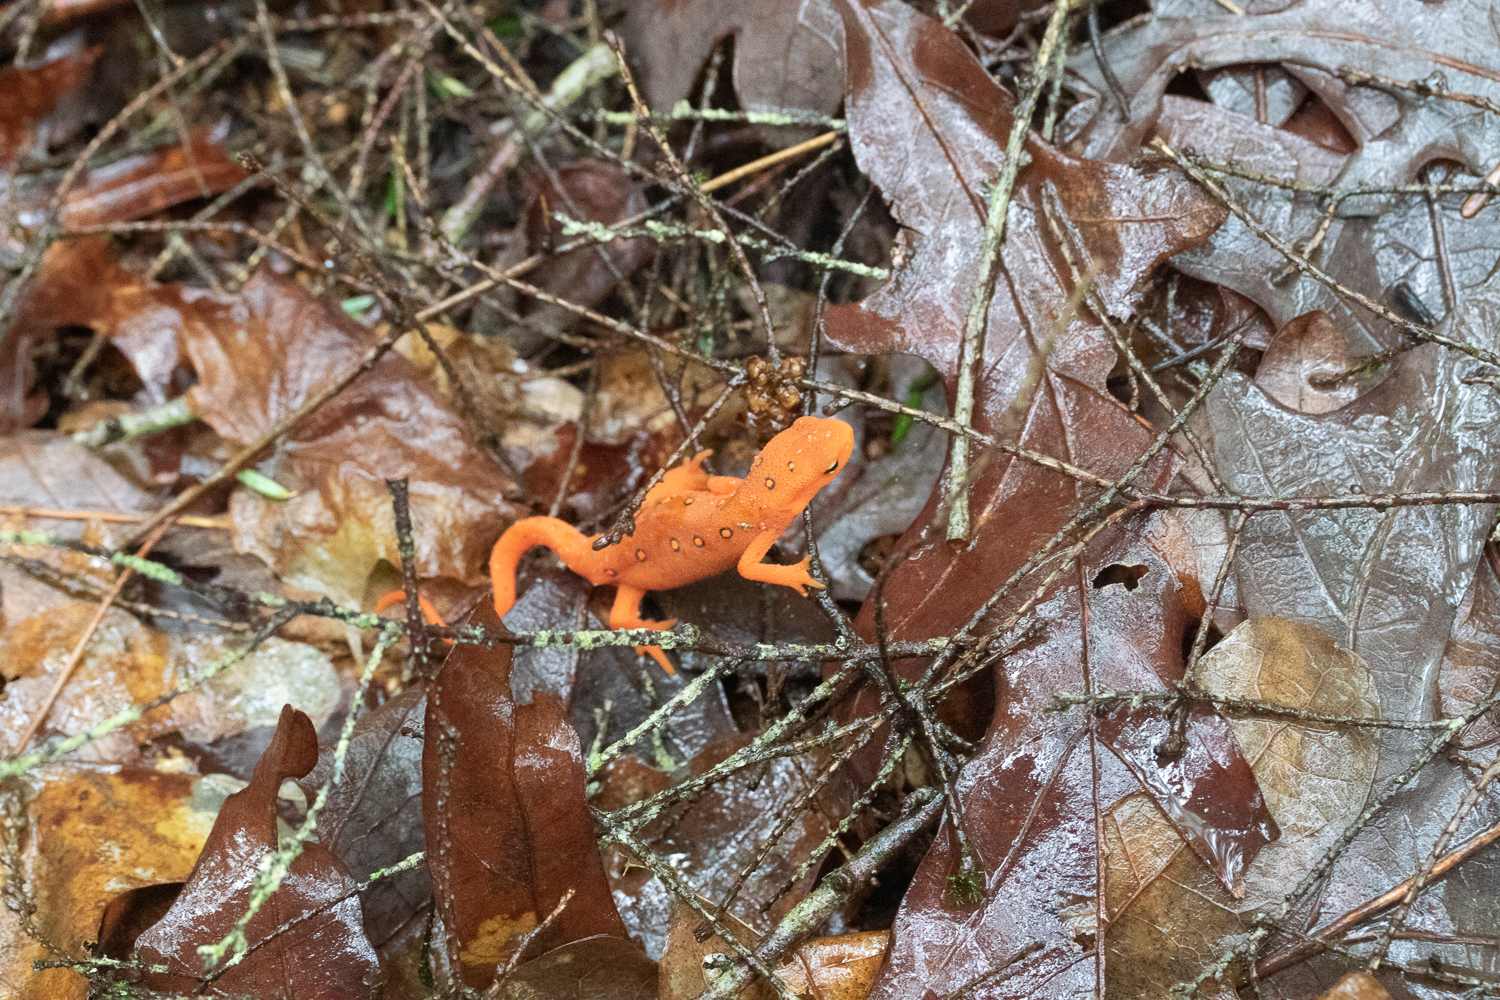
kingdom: Animalia
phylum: Chordata
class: Amphibia
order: Caudata
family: Salamandridae
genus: Notophthalmus
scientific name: Notophthalmus viridescens
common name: Eastern newt
